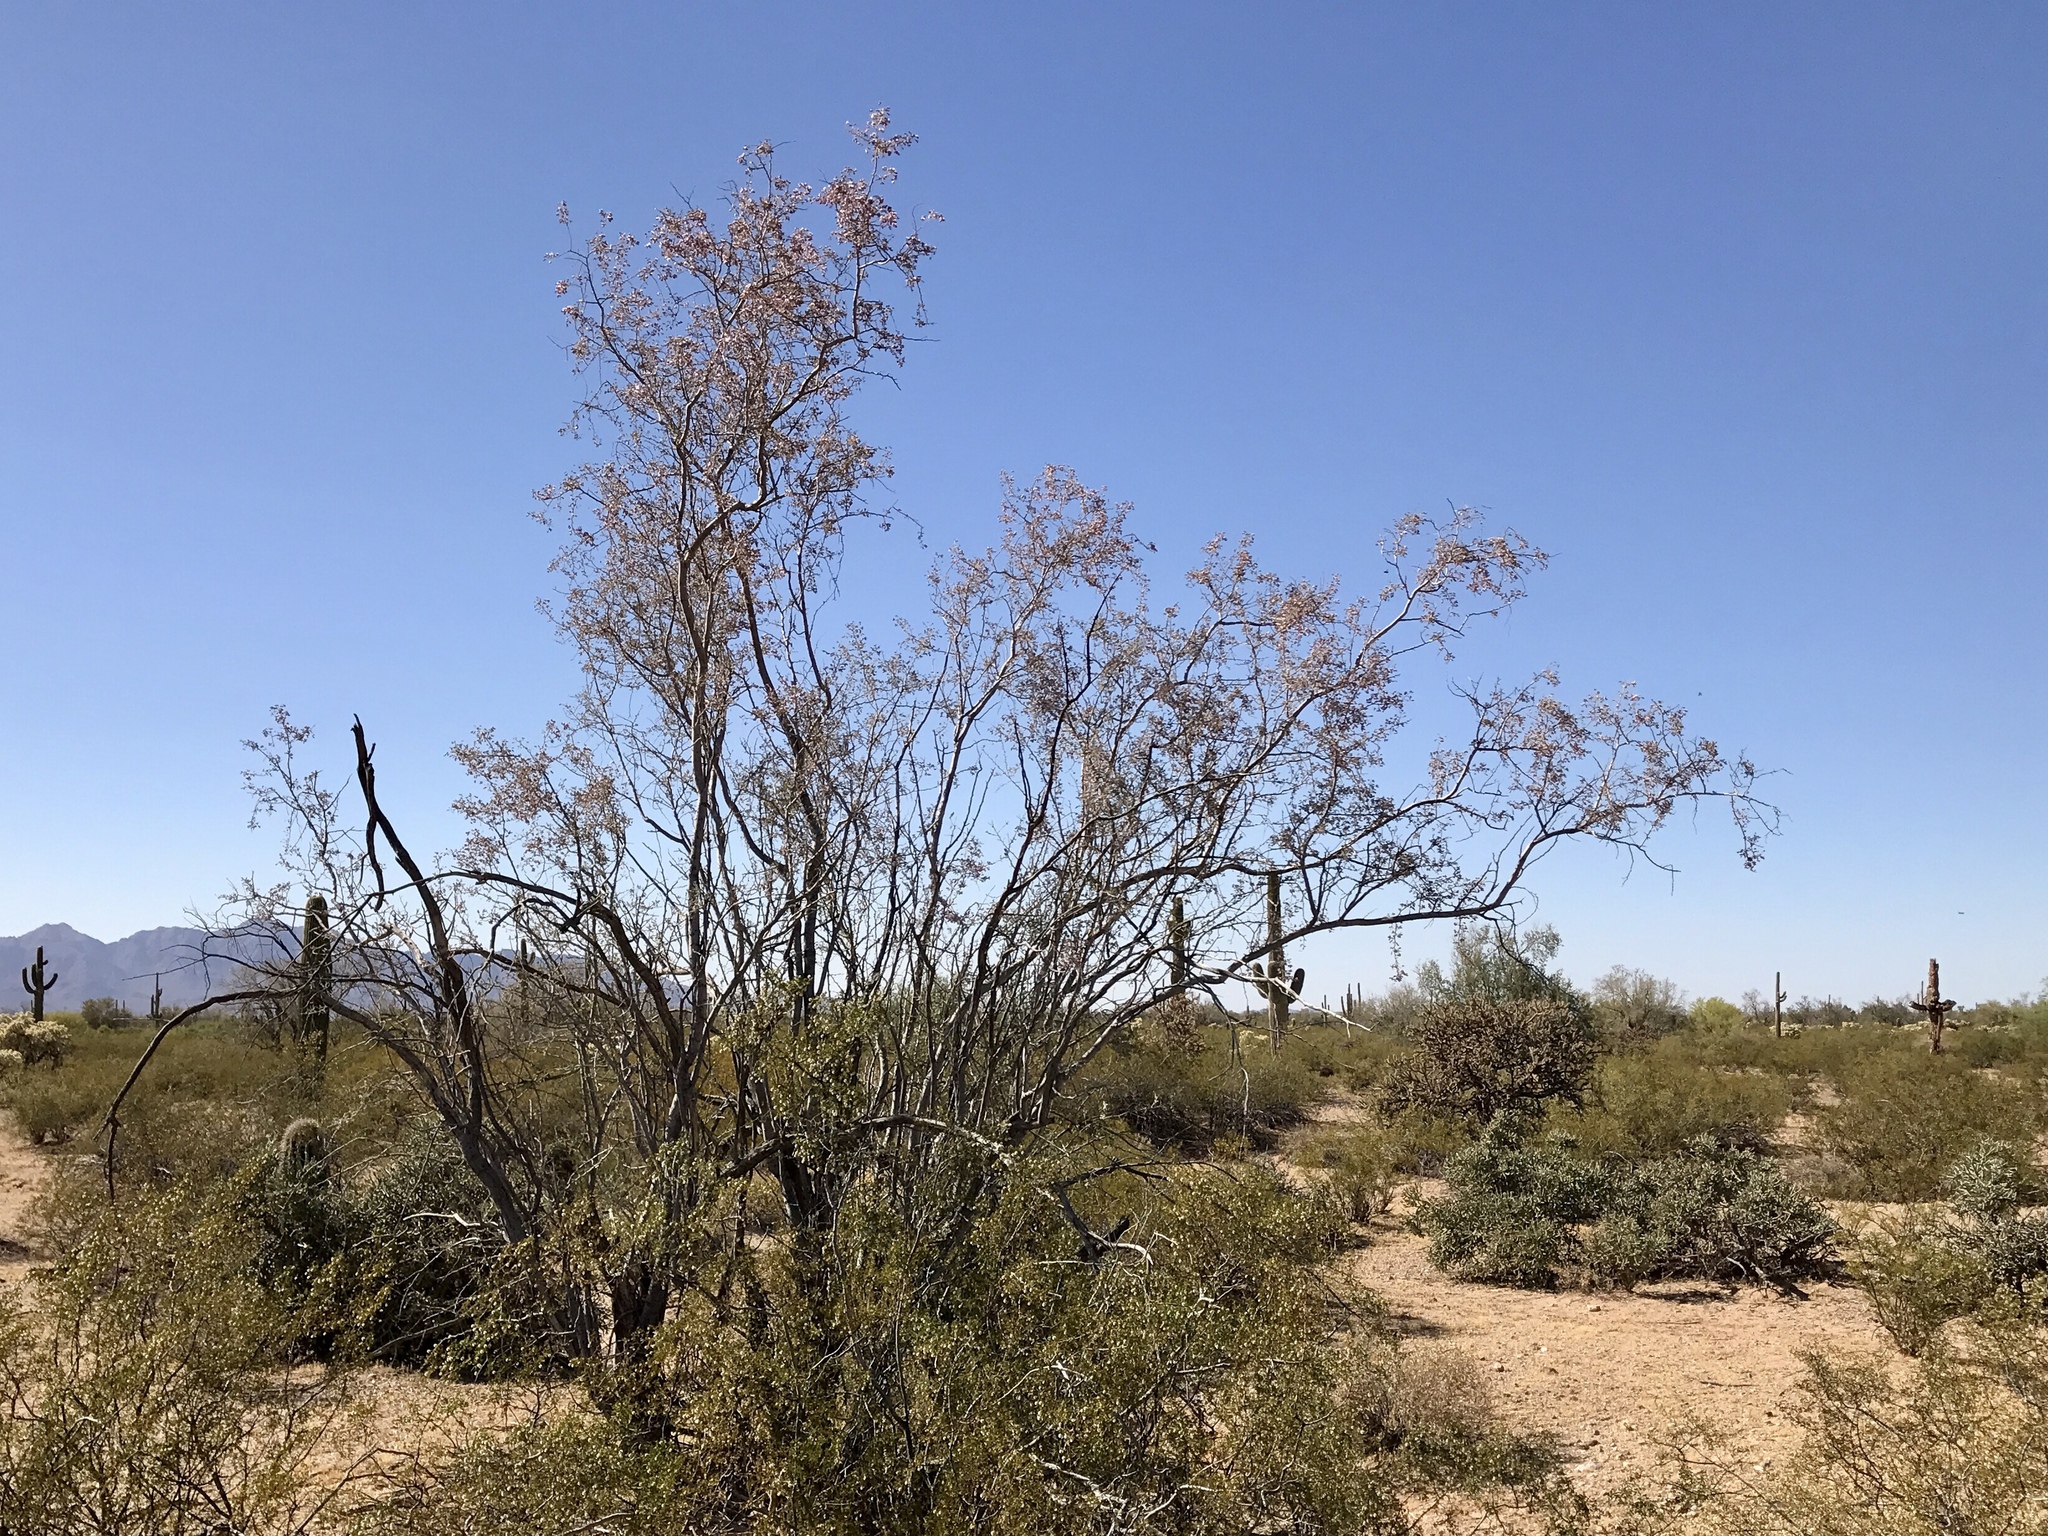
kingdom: Plantae
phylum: Tracheophyta
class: Magnoliopsida
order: Fabales
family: Fabaceae
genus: Olneya
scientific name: Olneya tesota
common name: Desert ironwood
